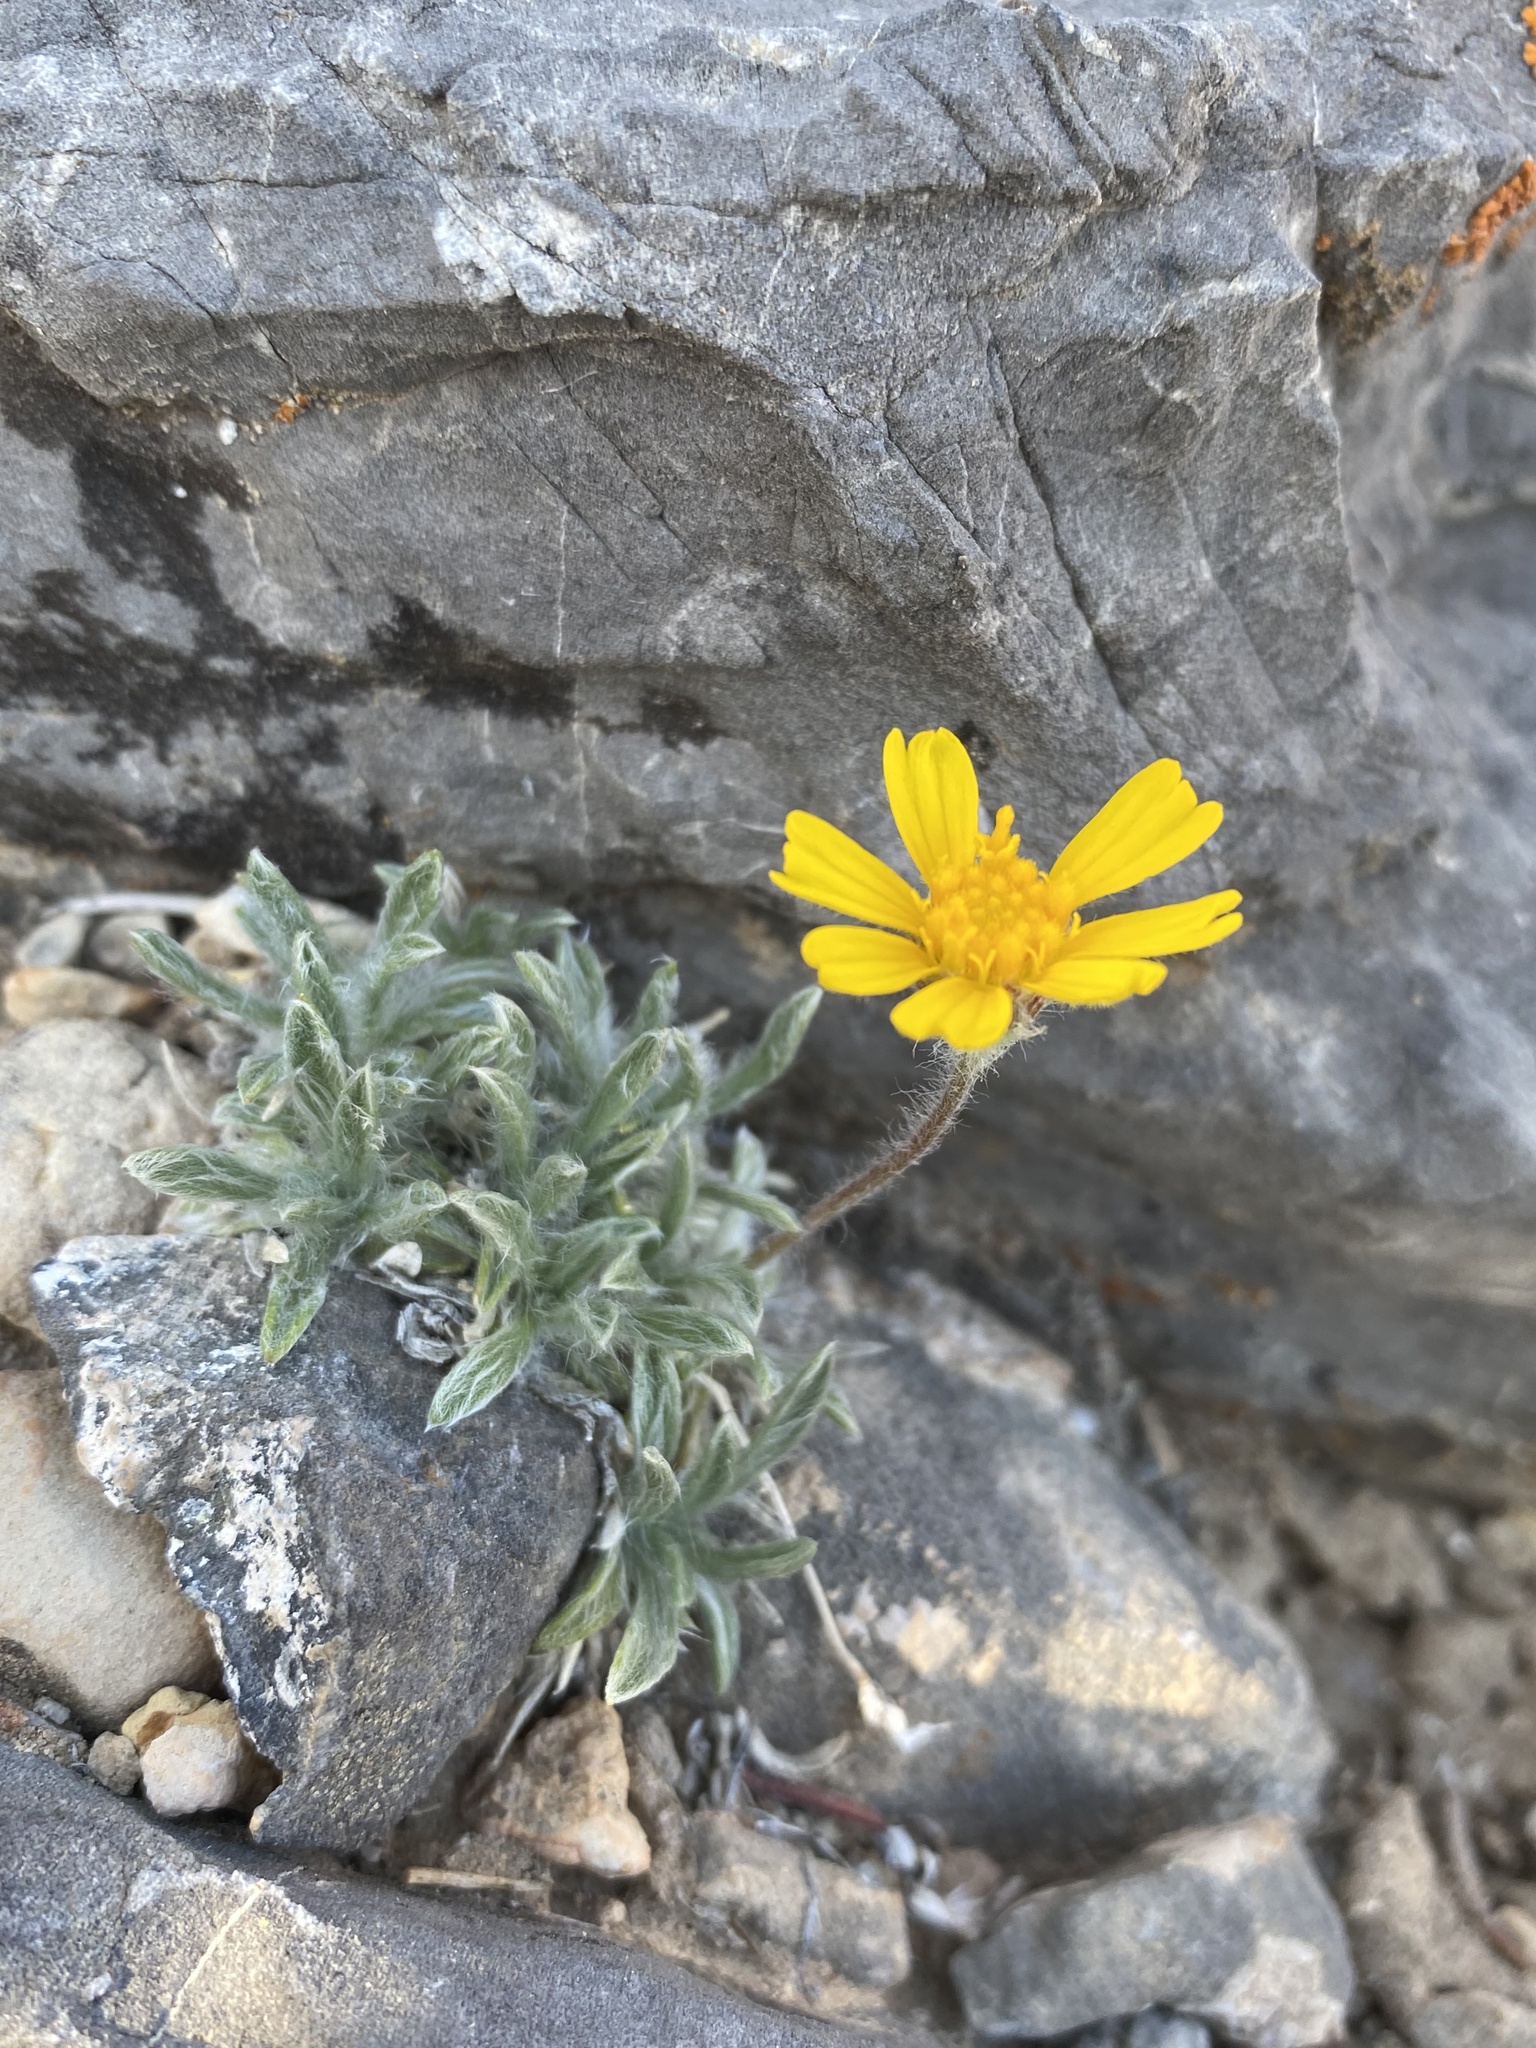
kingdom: Plantae
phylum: Tracheophyta
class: Magnoliopsida
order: Asterales
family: Asteraceae
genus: Tetraneuris
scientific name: Tetraneuris acaulis
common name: Butte marigold
